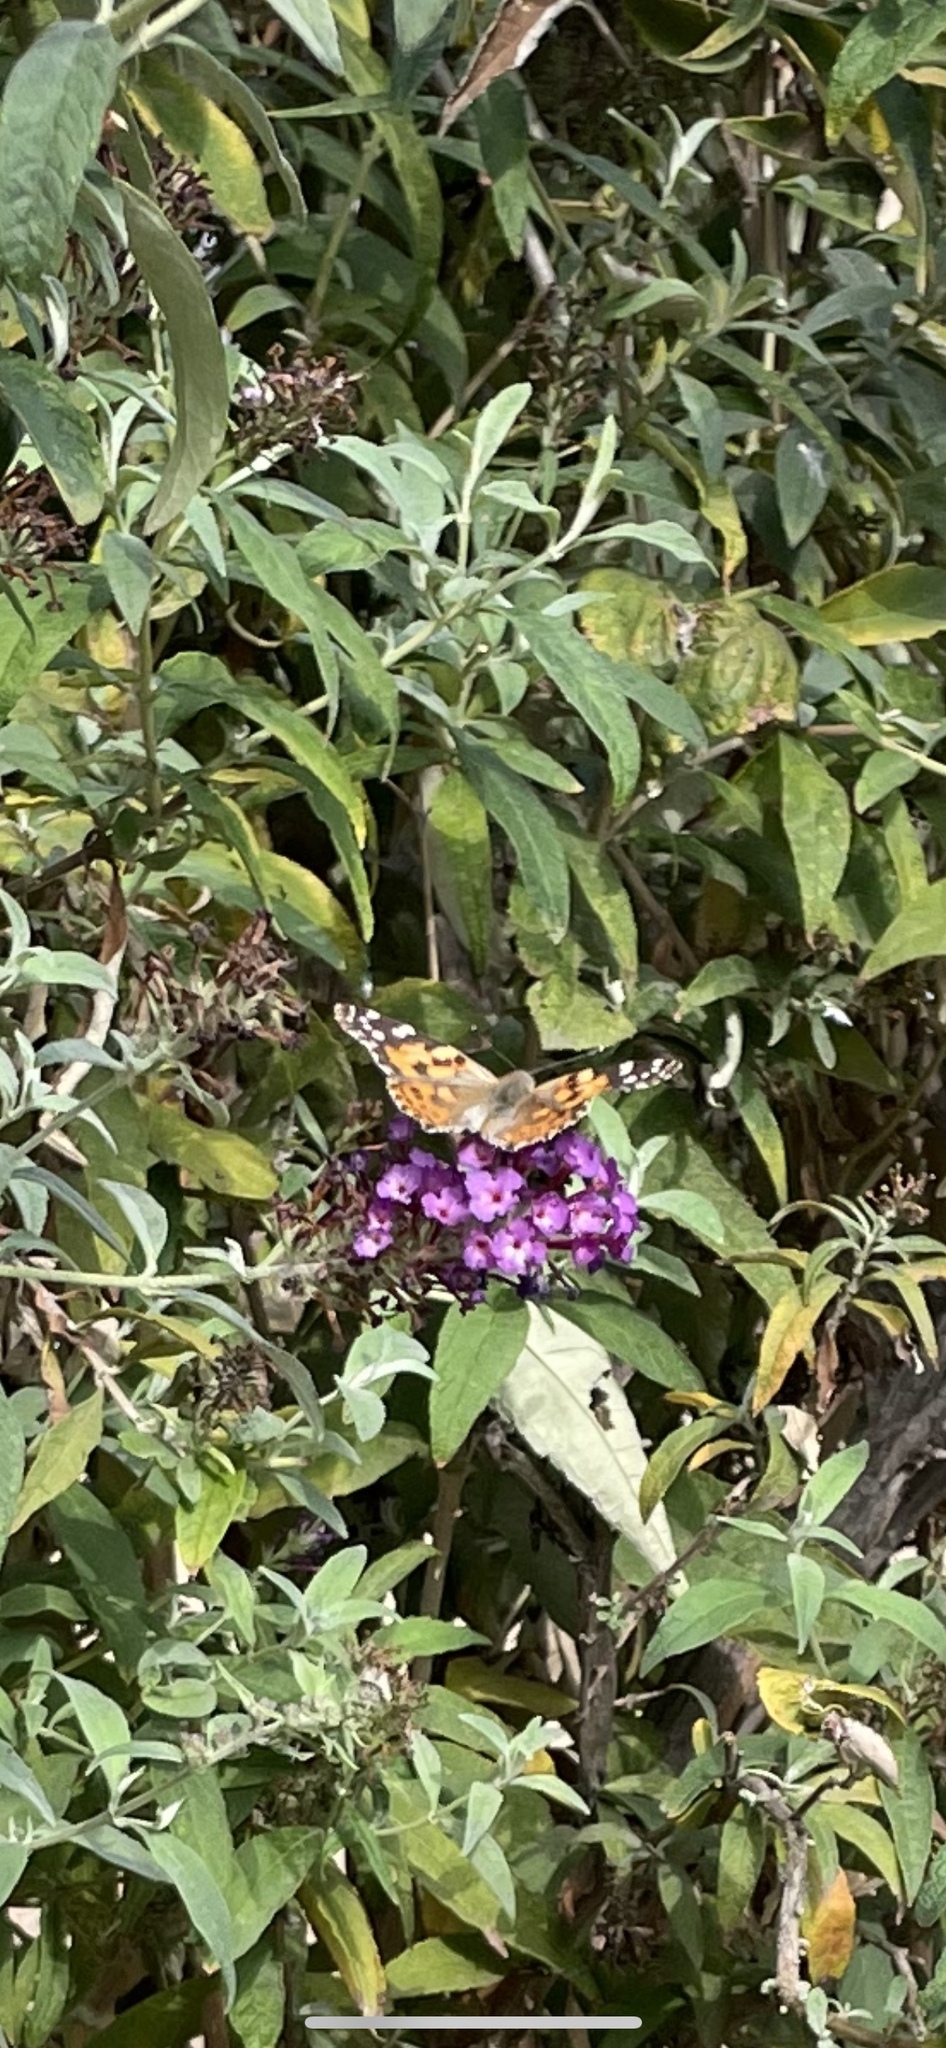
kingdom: Animalia
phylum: Arthropoda
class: Insecta
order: Lepidoptera
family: Nymphalidae
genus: Vanessa
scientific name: Vanessa cardui
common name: Painted lady
